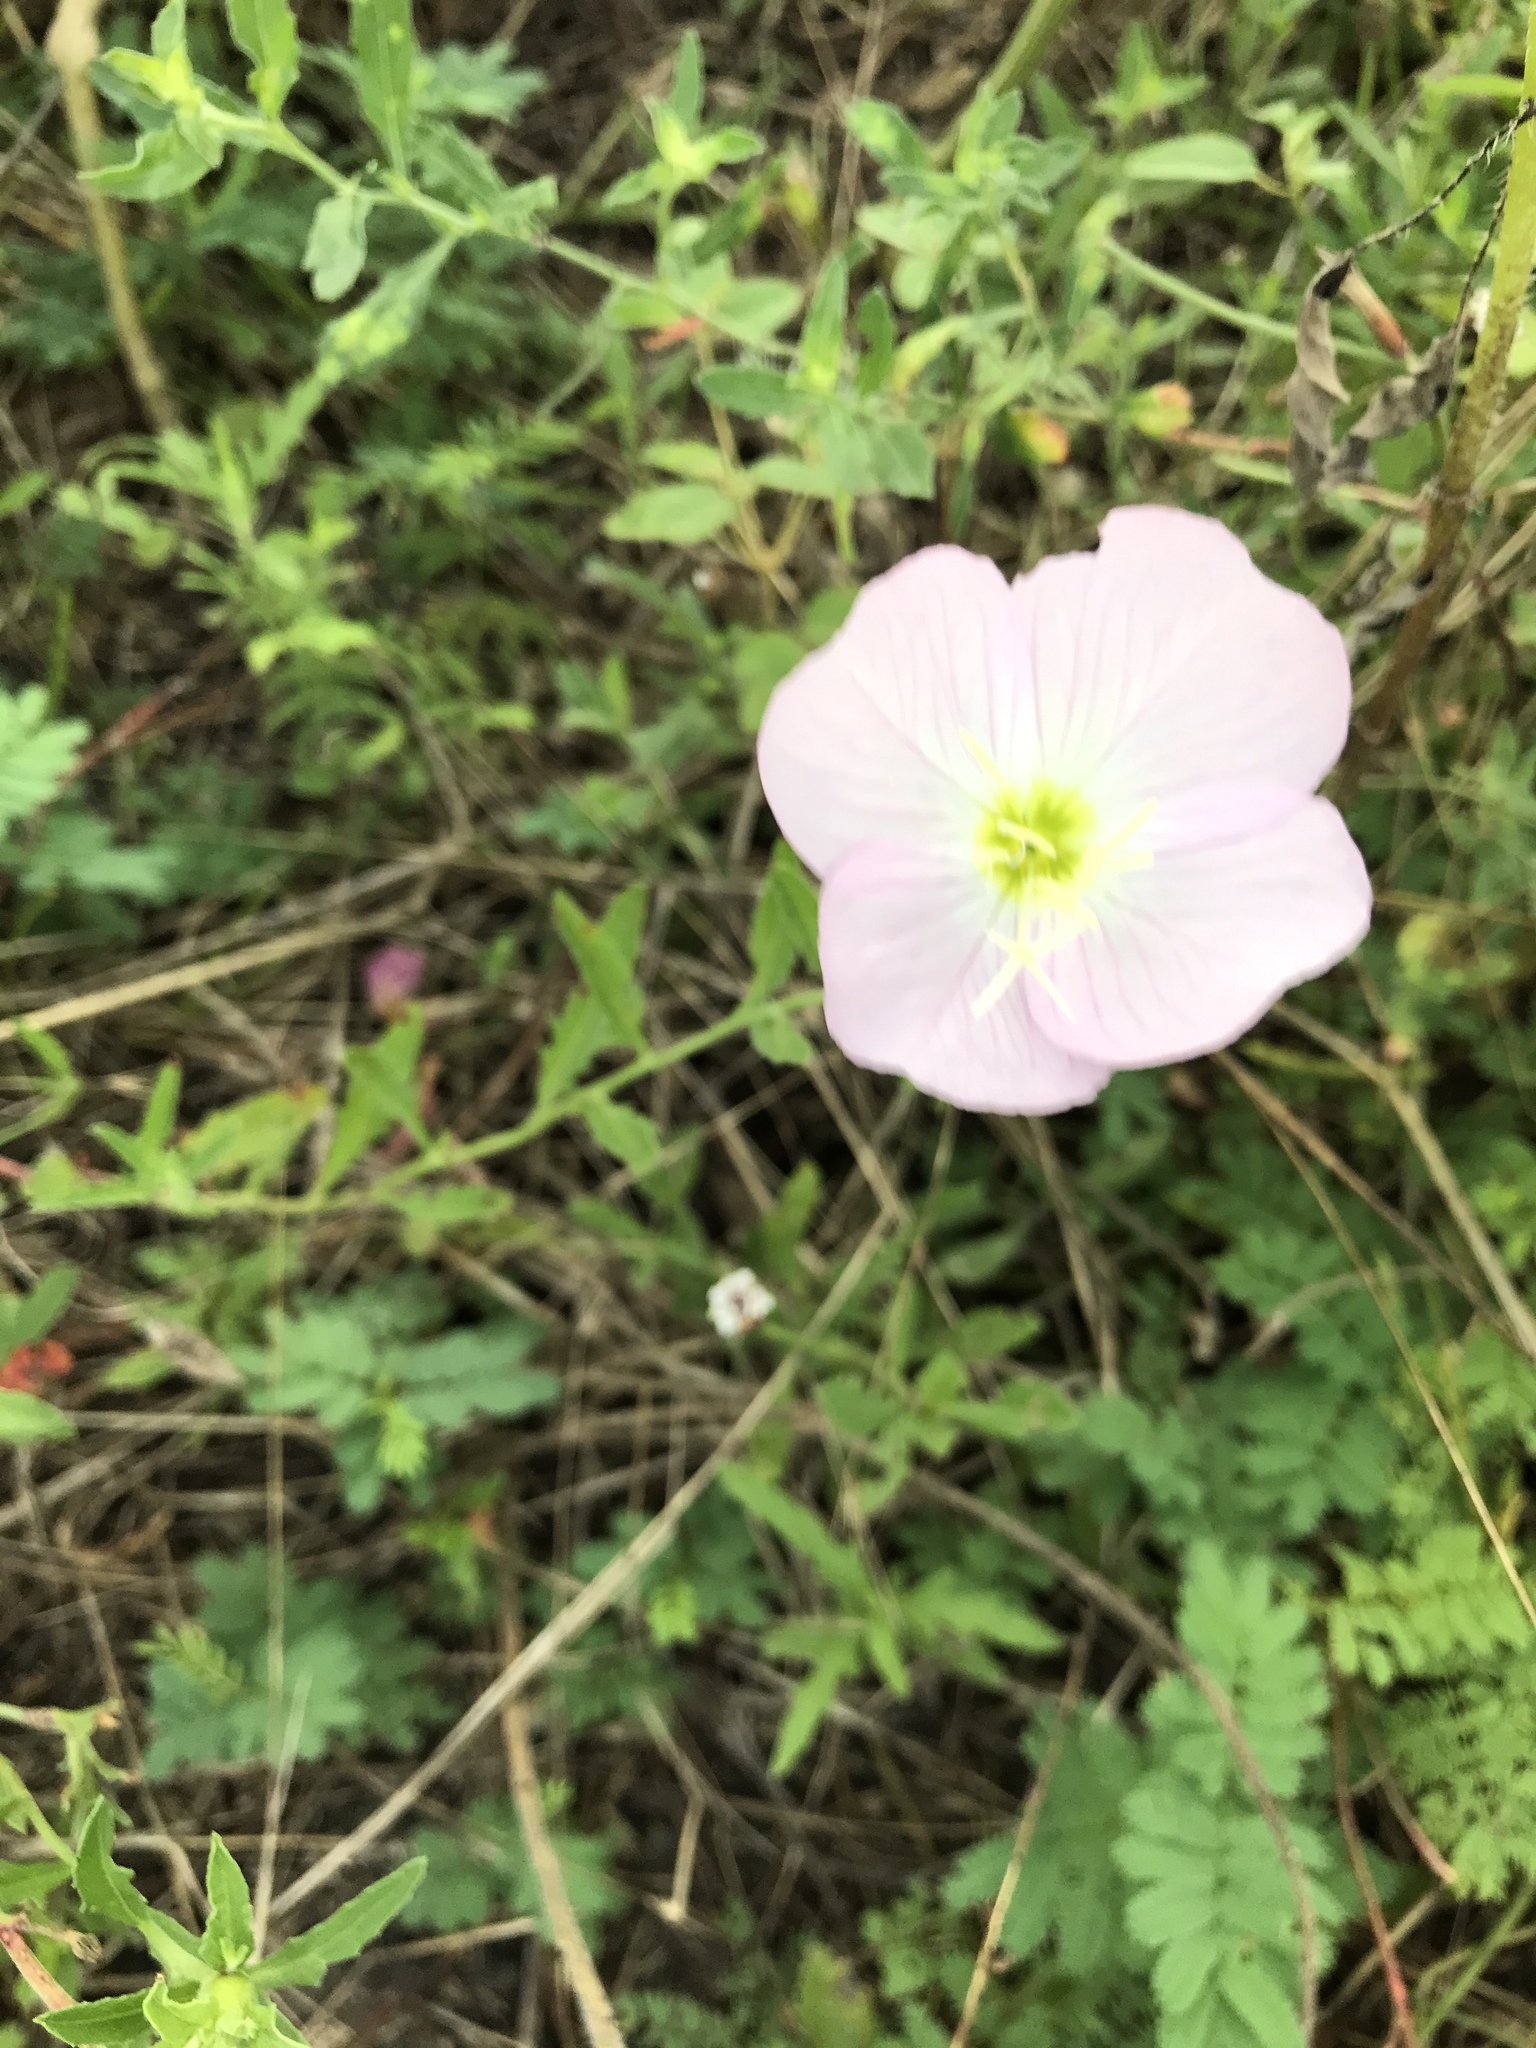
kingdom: Plantae
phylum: Tracheophyta
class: Magnoliopsida
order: Myrtales
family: Onagraceae
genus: Oenothera
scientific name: Oenothera speciosa
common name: White evening-primrose
